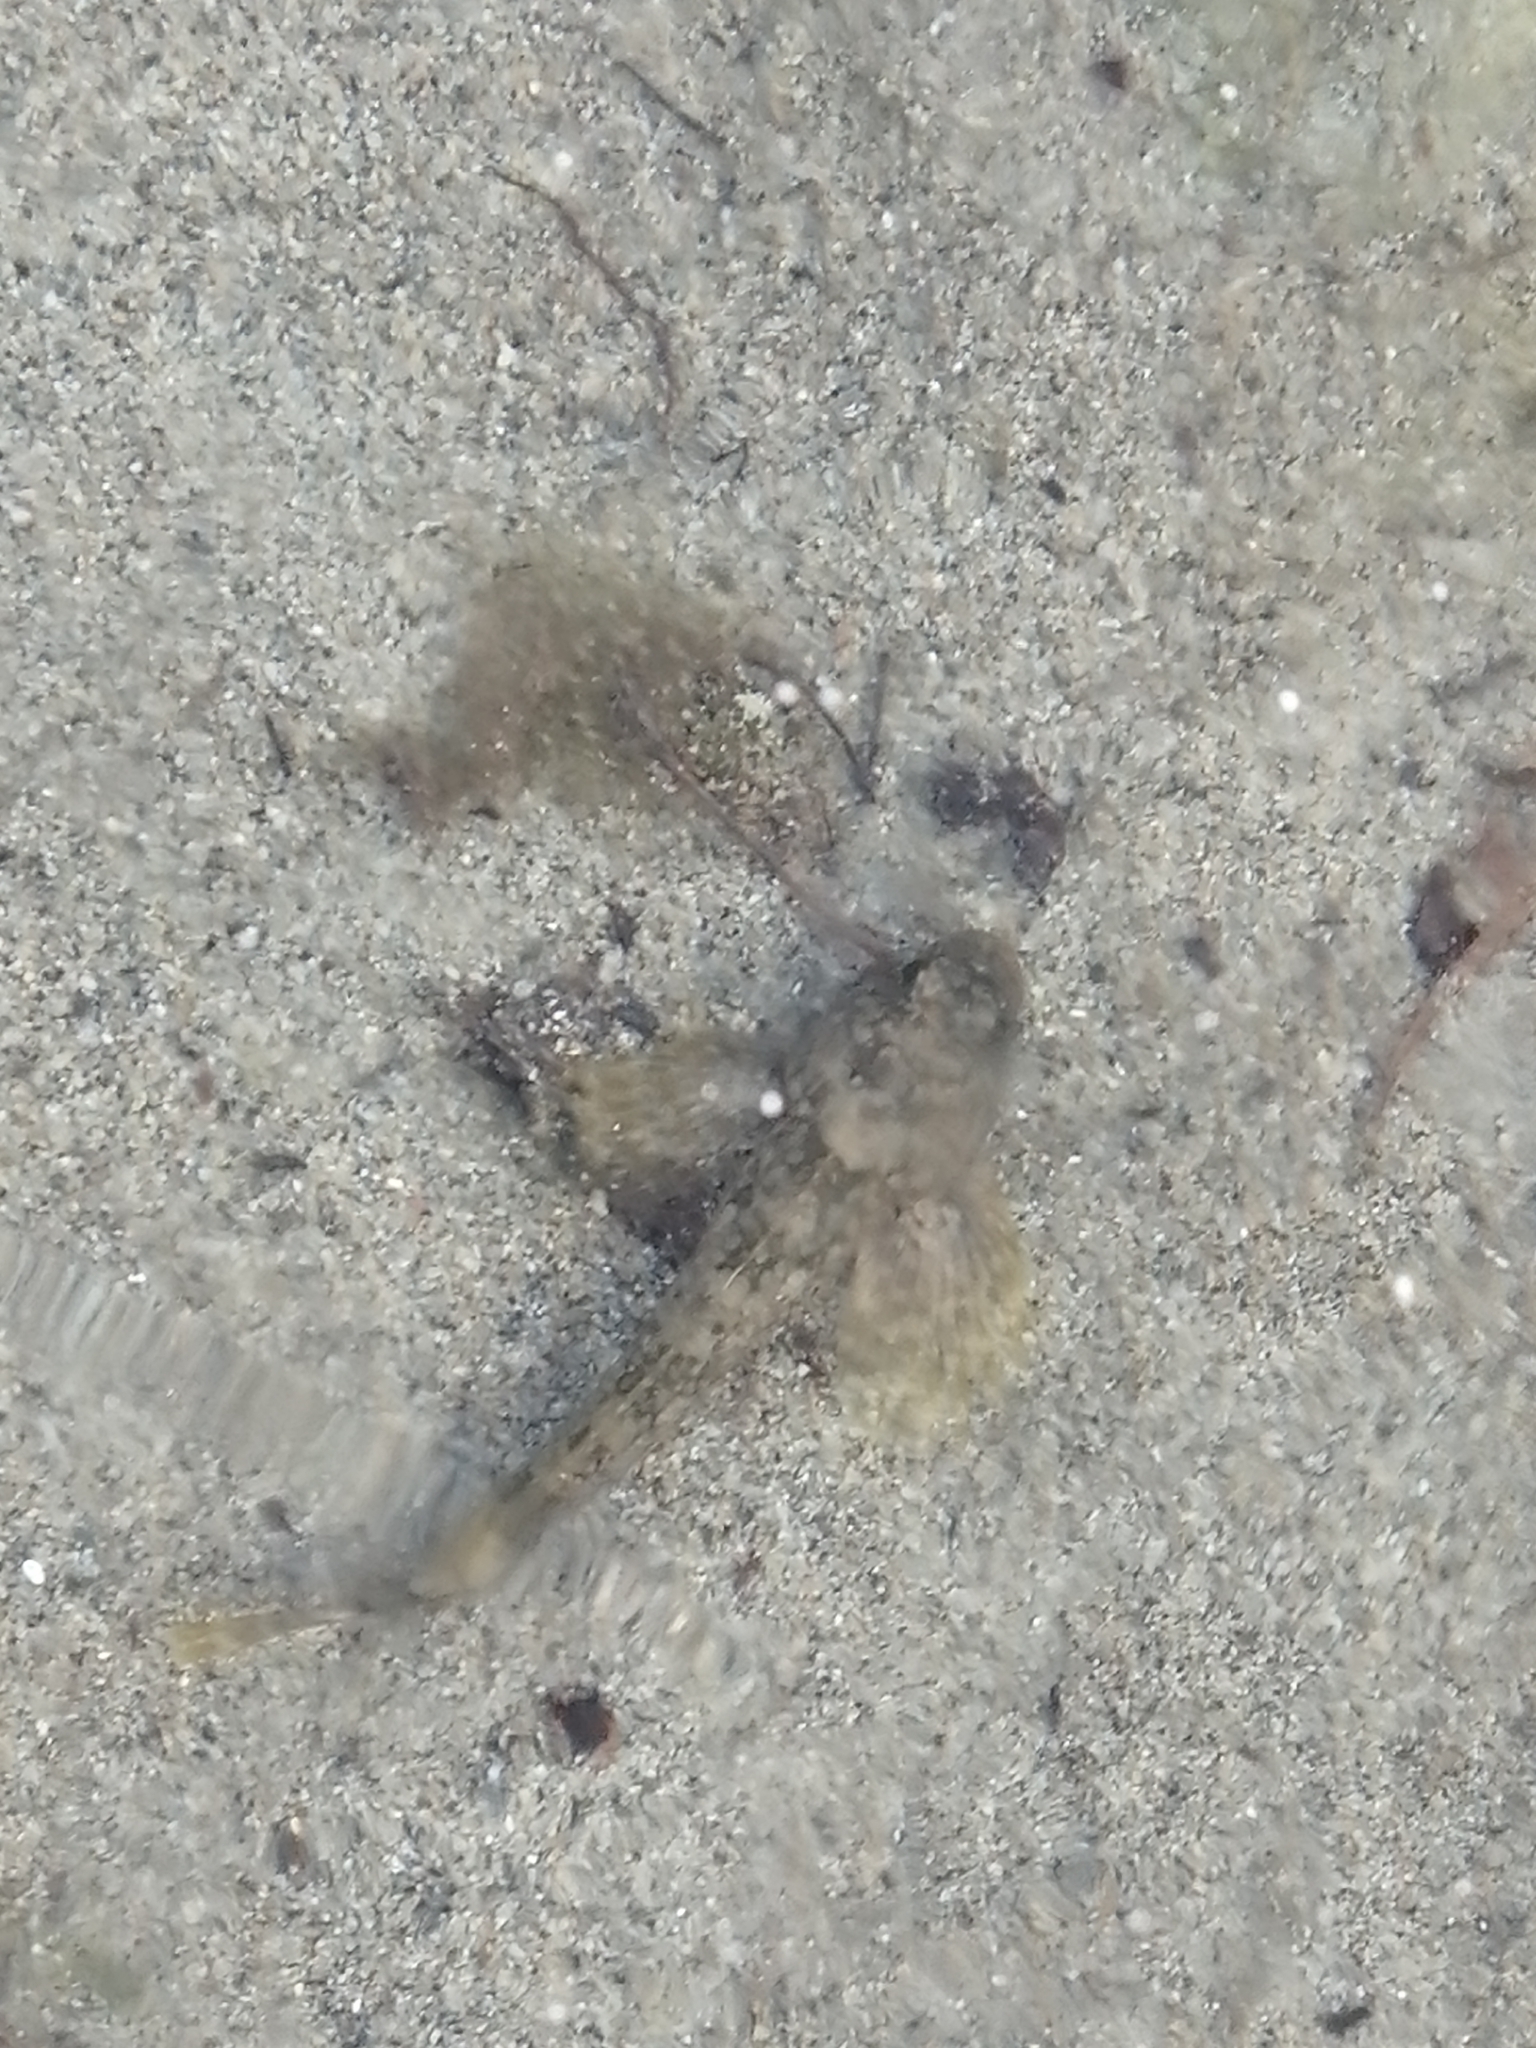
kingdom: Animalia
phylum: Chordata
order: Scorpaeniformes
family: Cottocomephoridae
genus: Paracottus
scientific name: Paracottus knerii
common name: Stone sculpin
